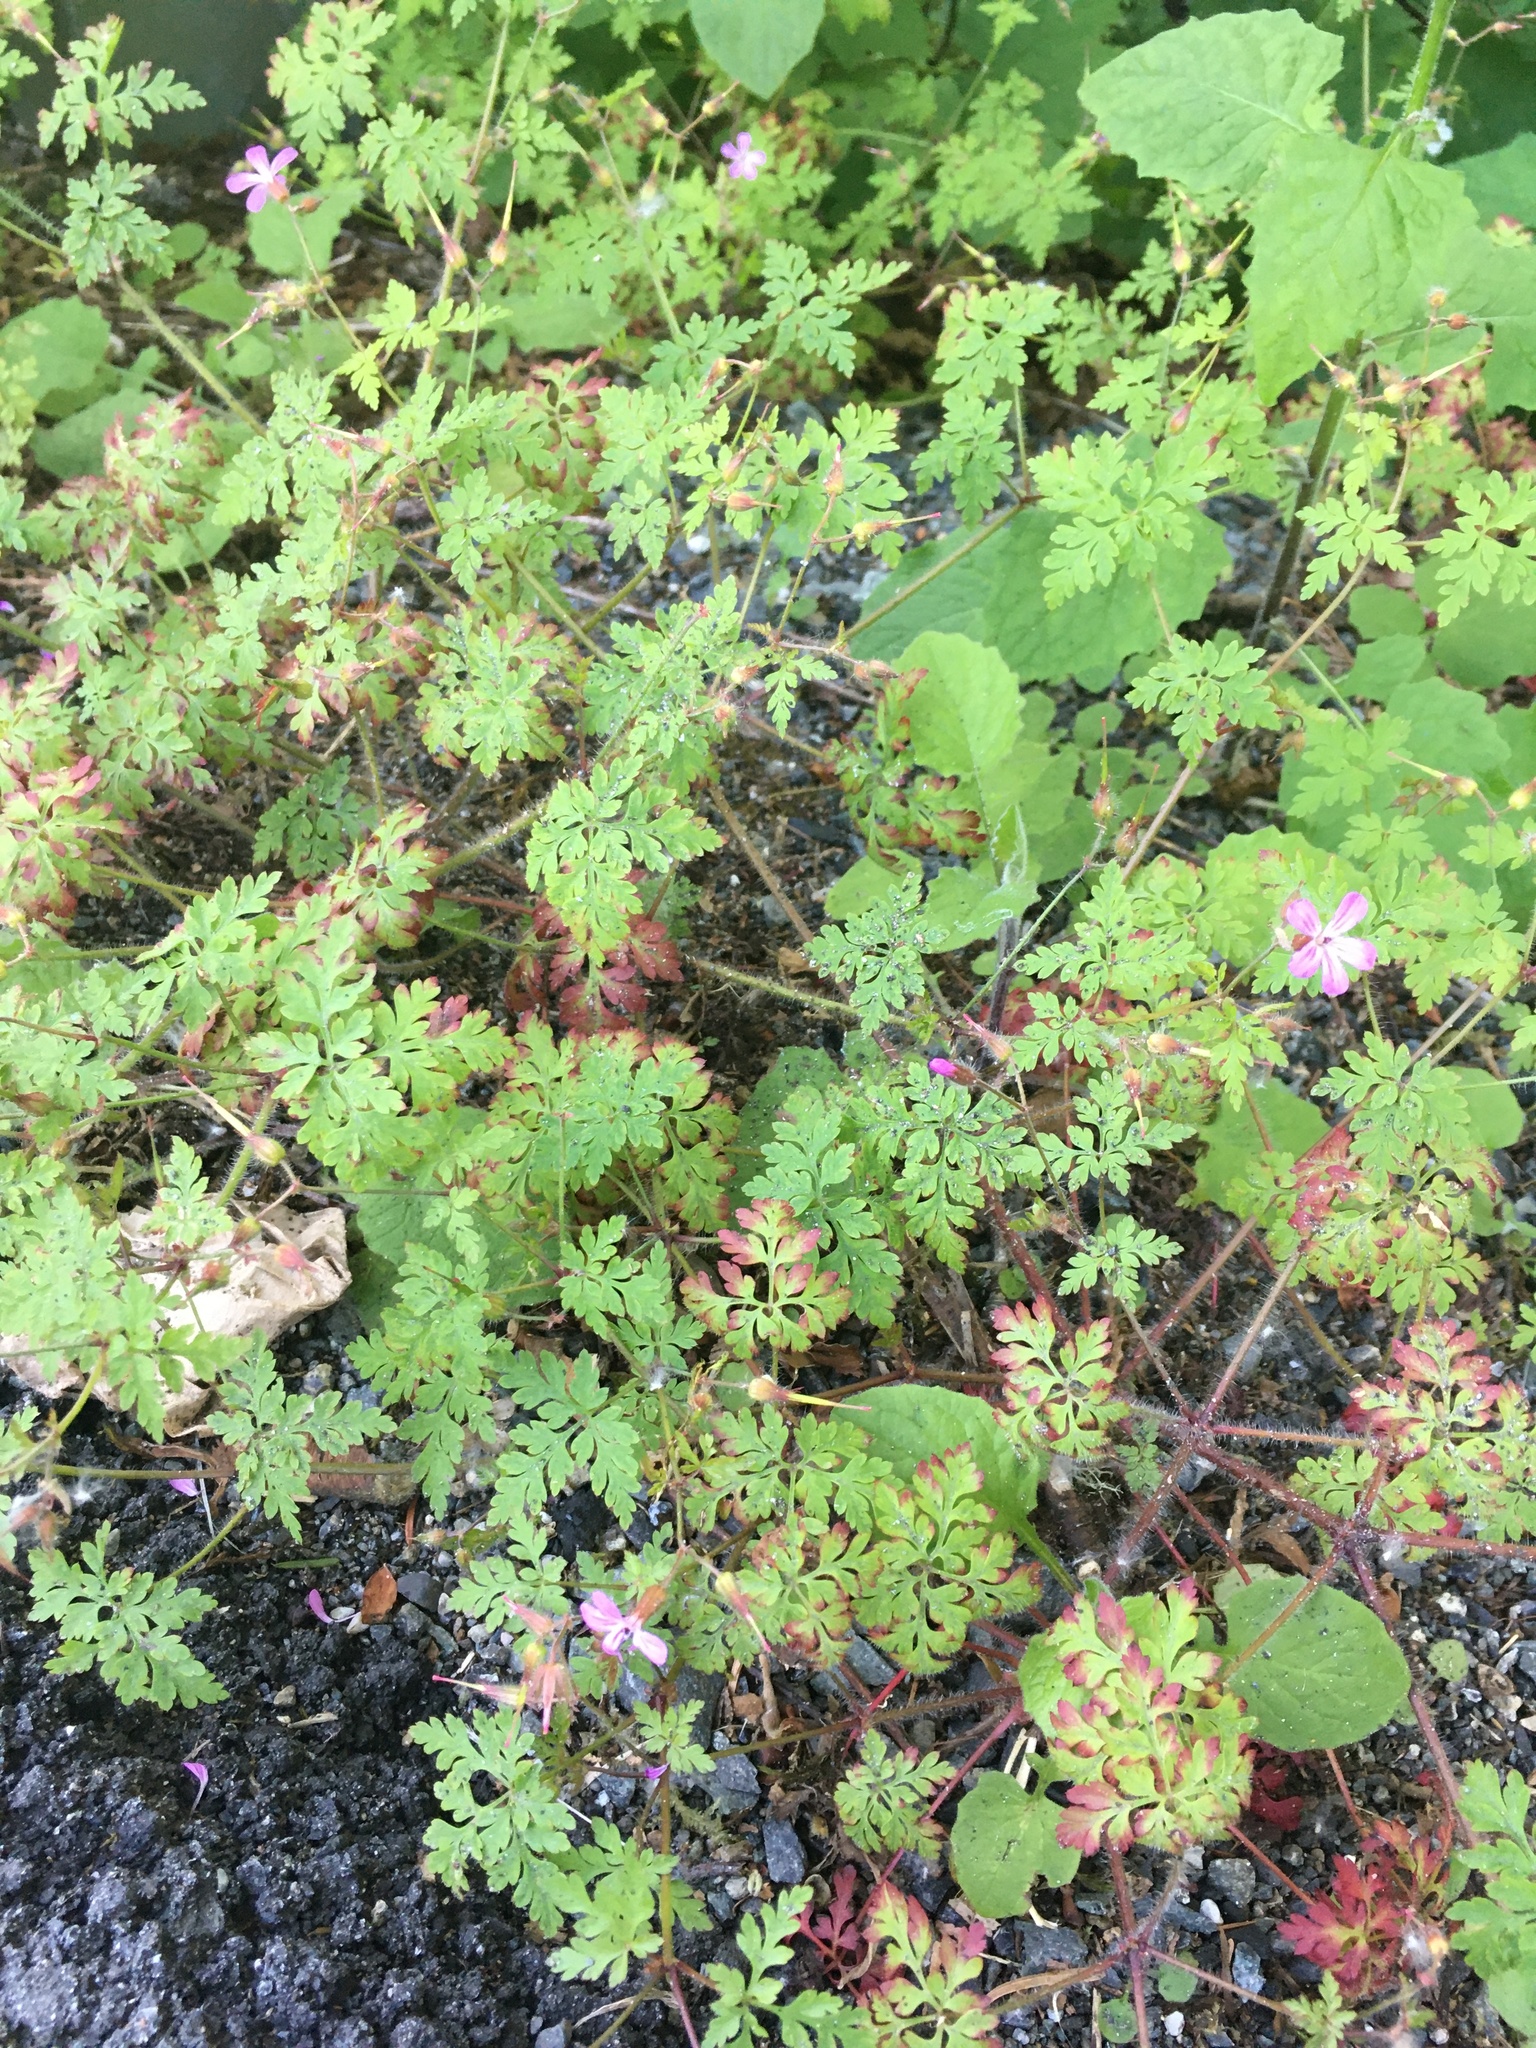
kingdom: Plantae
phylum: Tracheophyta
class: Magnoliopsida
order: Geraniales
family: Geraniaceae
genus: Geranium
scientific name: Geranium robertianum
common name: Herb-robert
